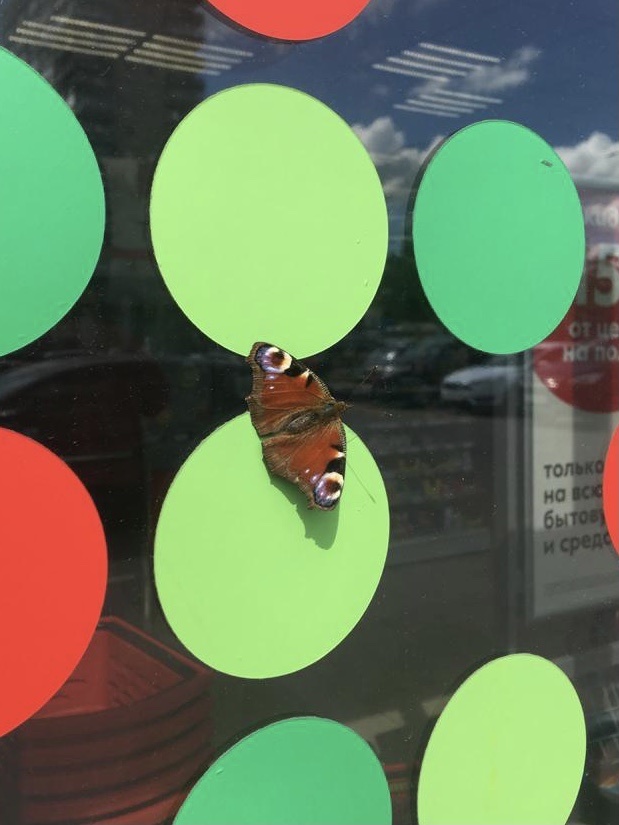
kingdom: Animalia
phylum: Arthropoda
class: Insecta
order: Lepidoptera
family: Nymphalidae
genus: Aglais
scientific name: Aglais io
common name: Peacock
